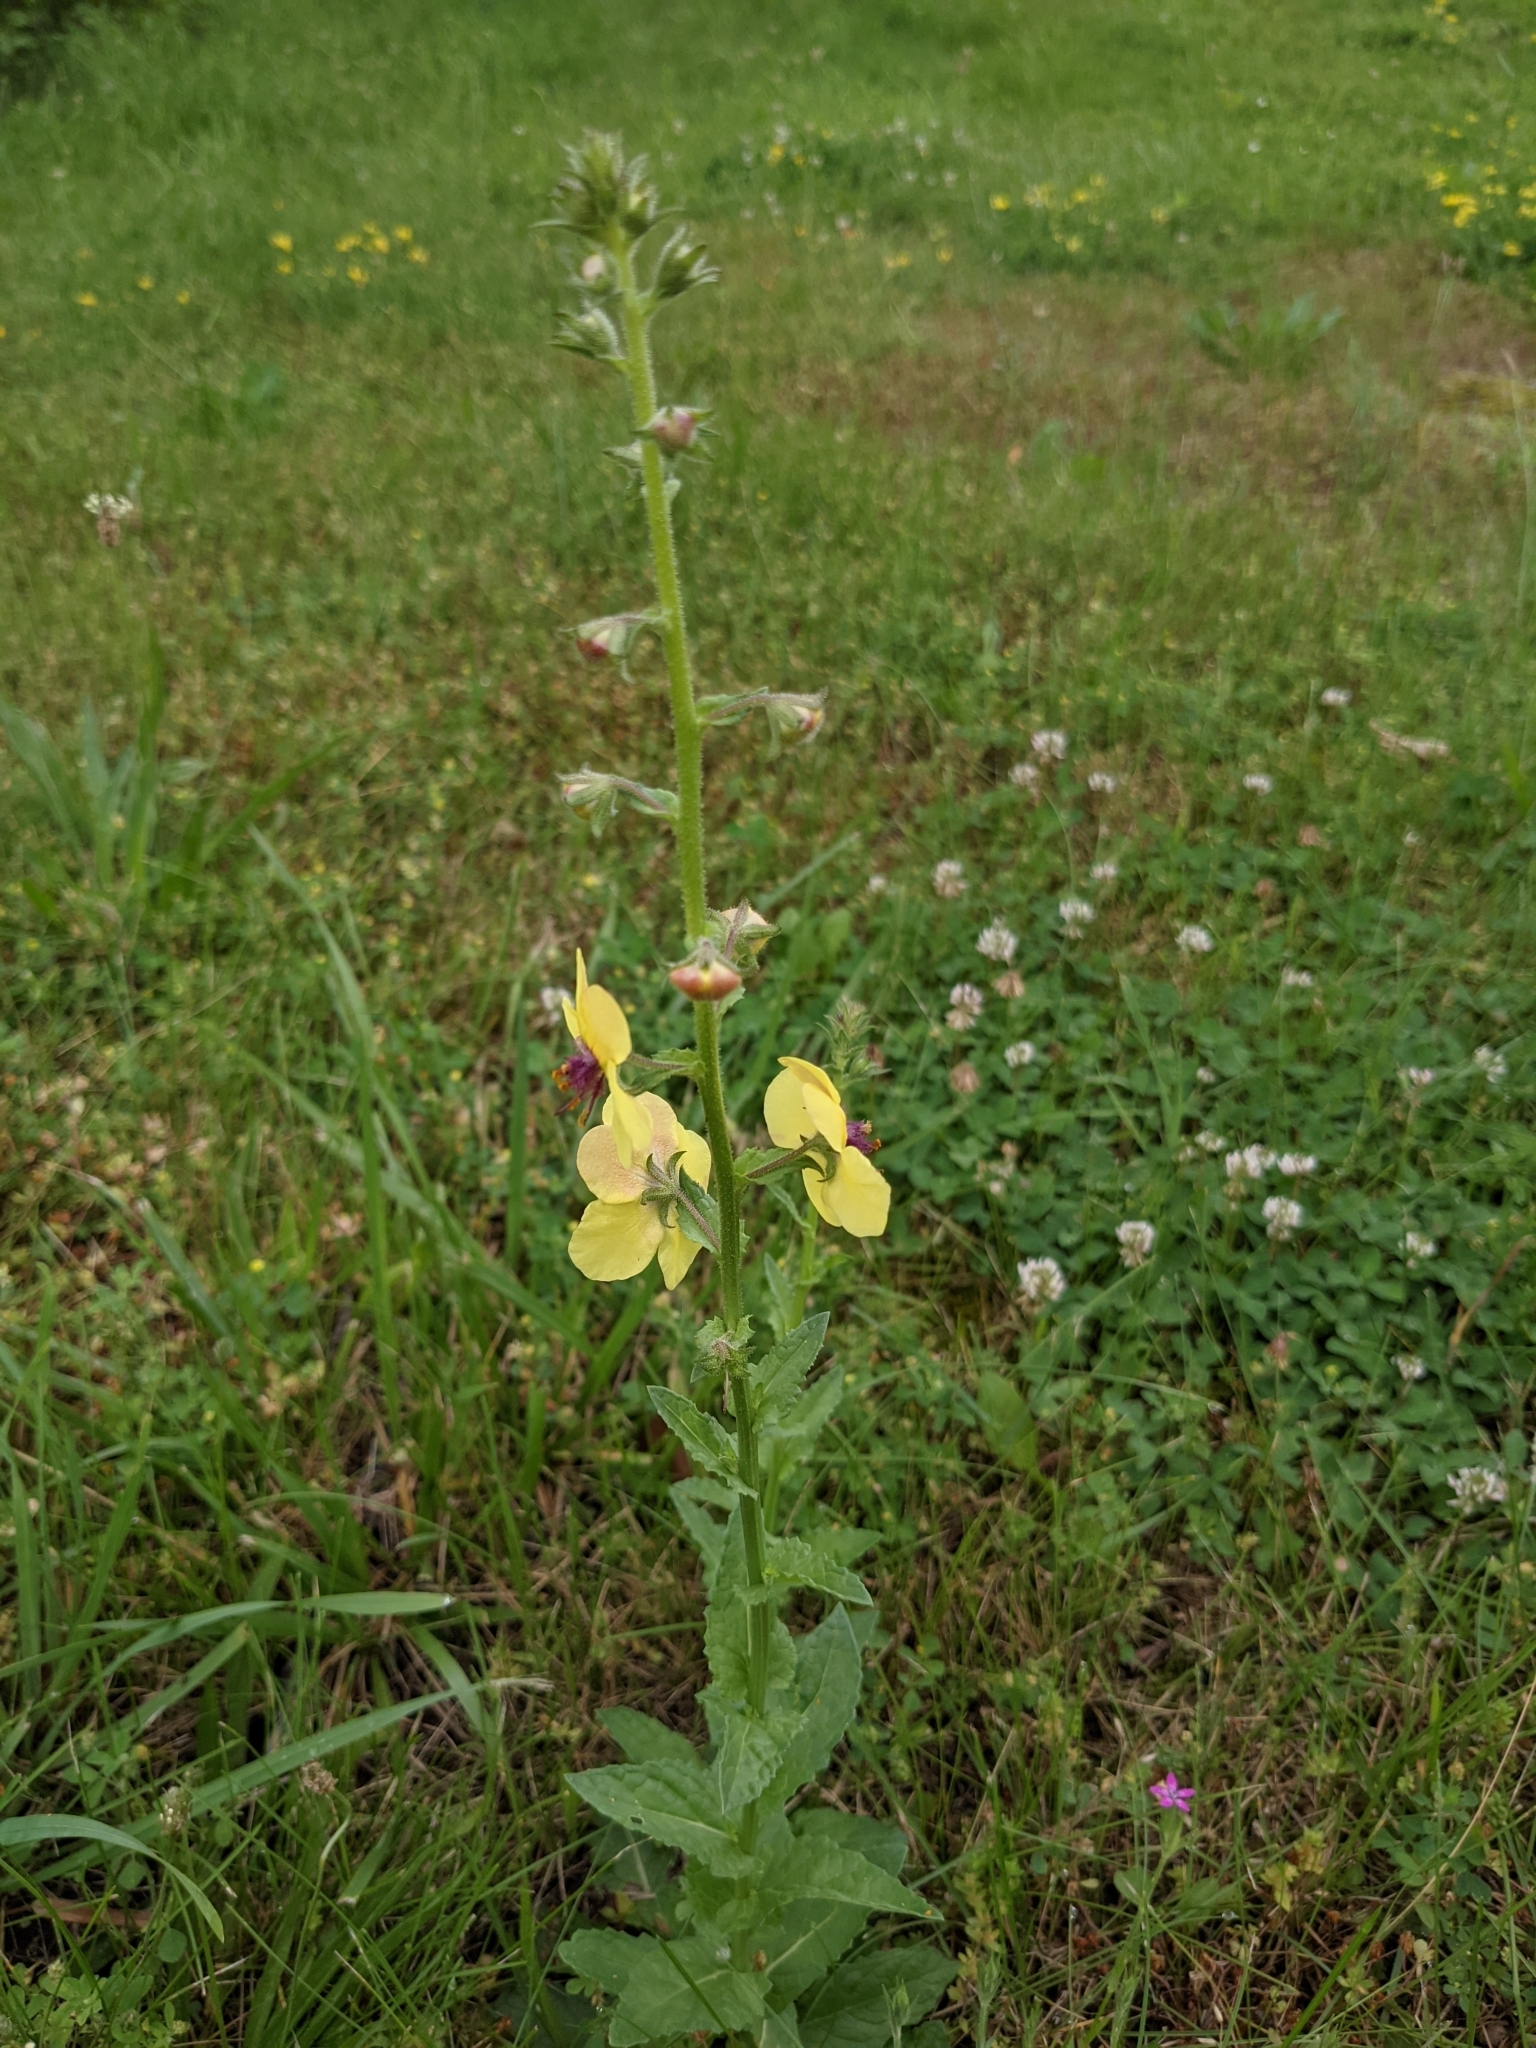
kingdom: Plantae
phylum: Tracheophyta
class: Magnoliopsida
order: Lamiales
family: Scrophulariaceae
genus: Verbascum
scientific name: Verbascum blattaria
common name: Moth mullein
